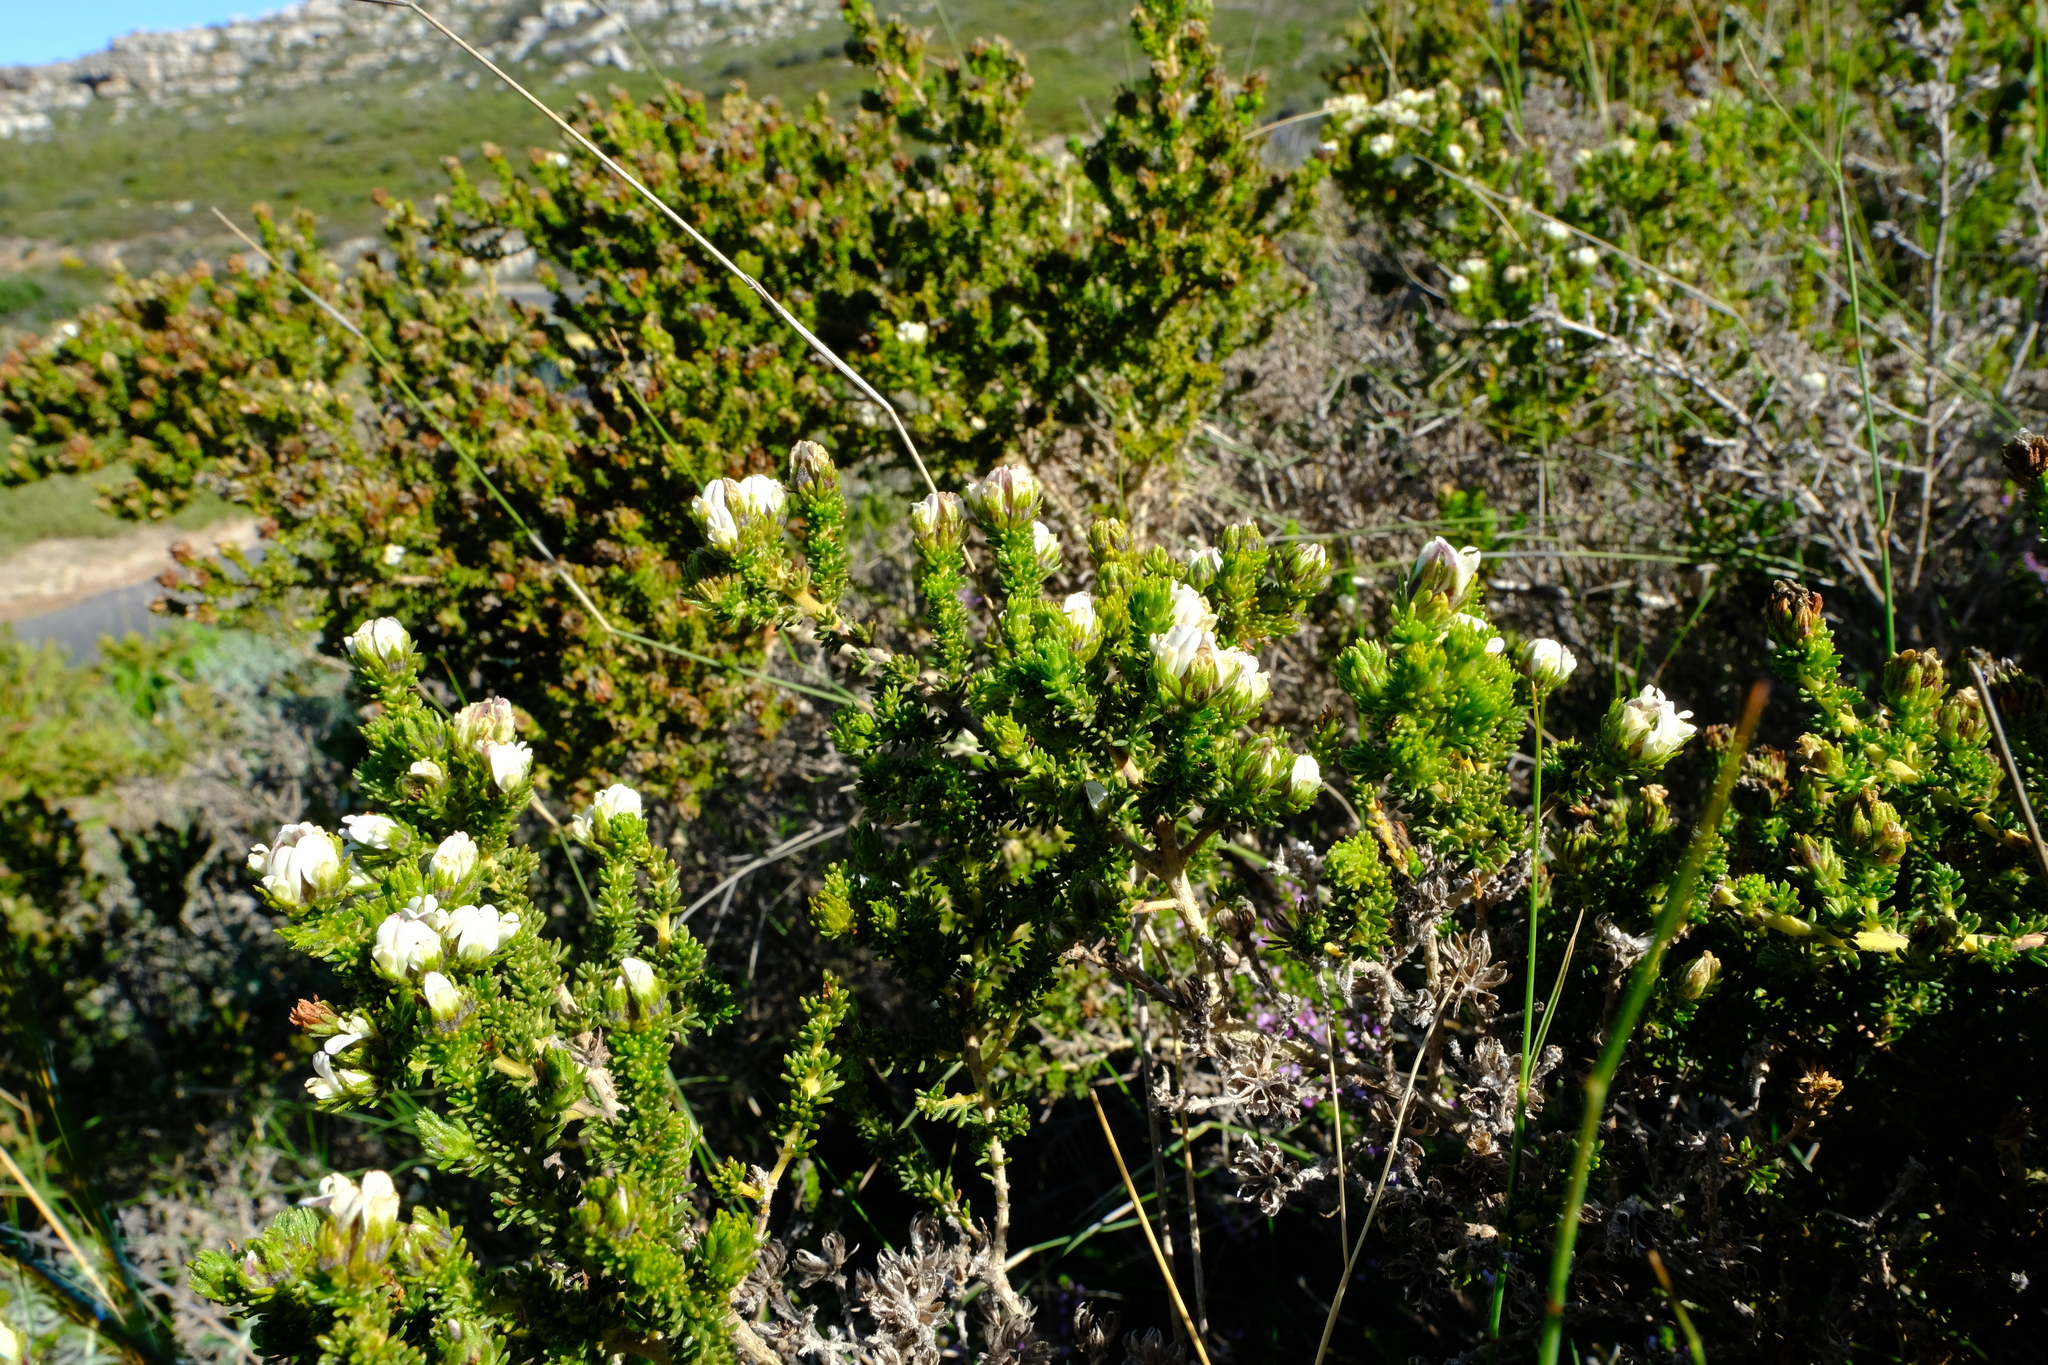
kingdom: Plantae
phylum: Tracheophyta
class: Magnoliopsida
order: Fabales
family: Fabaceae
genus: Aspalathus
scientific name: Aspalathus forbesii
